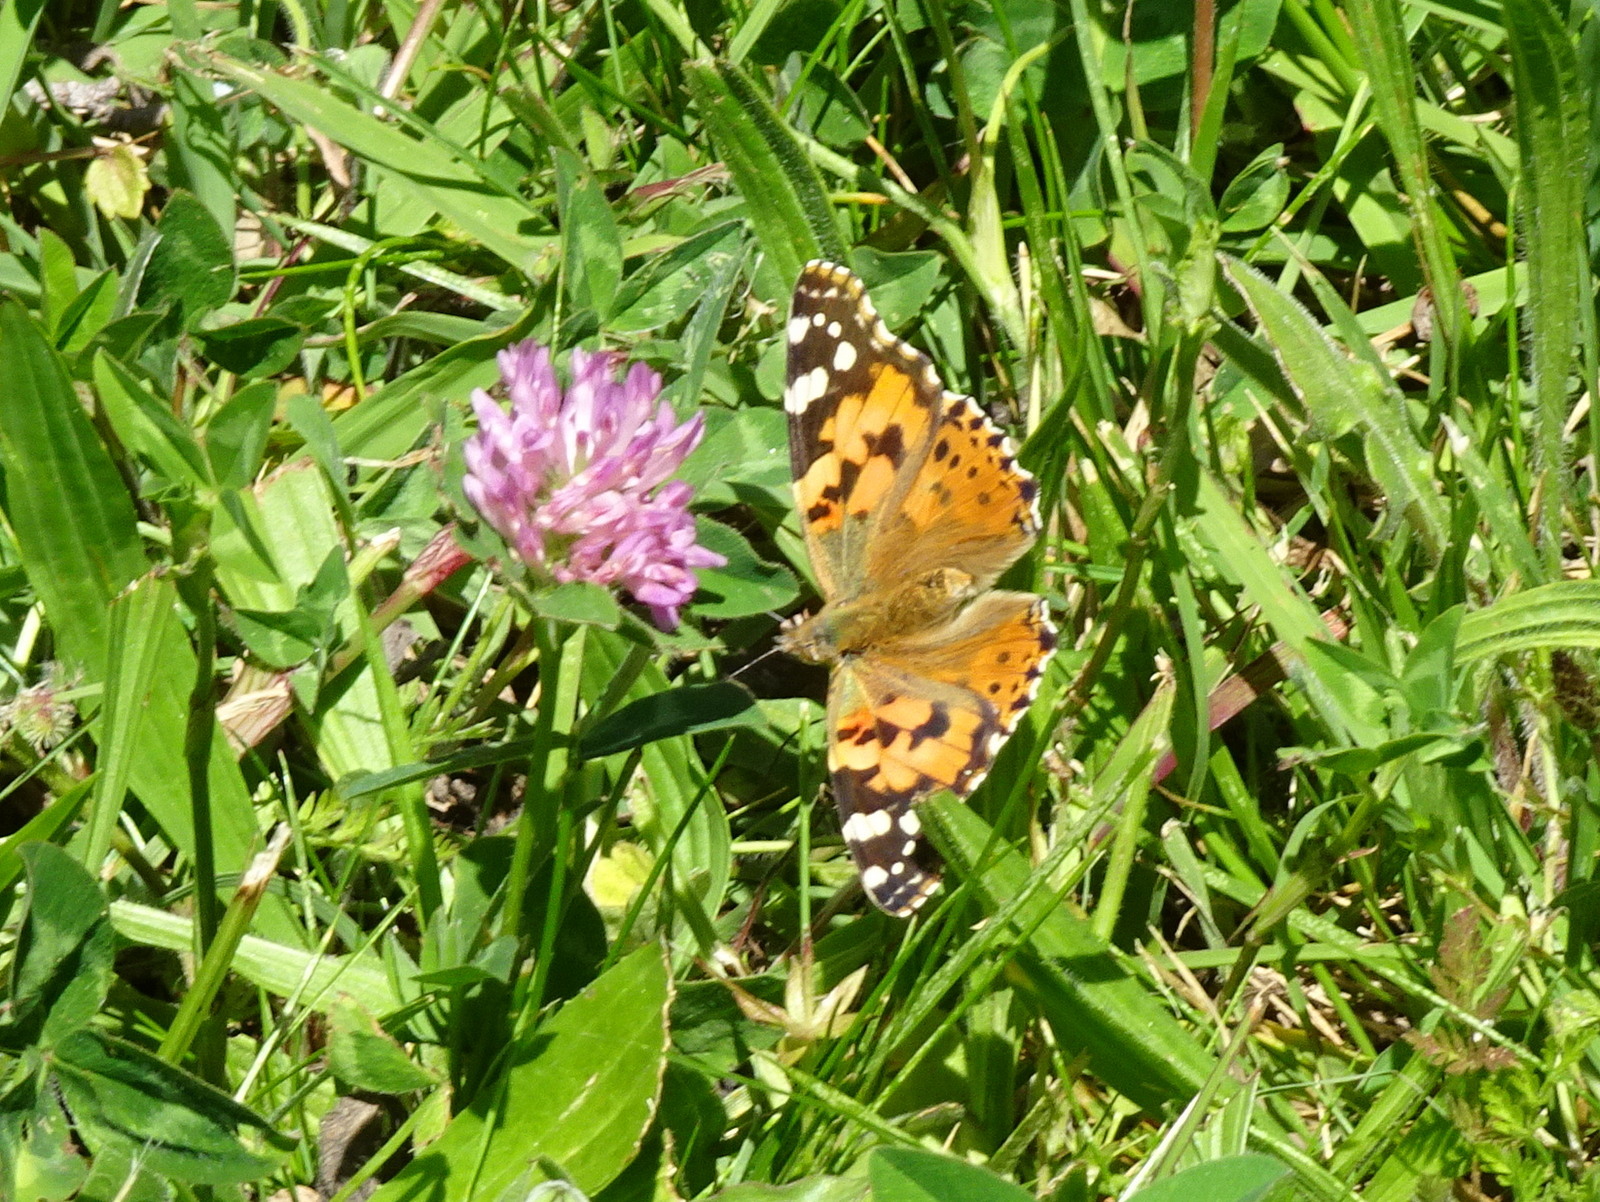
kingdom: Animalia
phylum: Arthropoda
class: Insecta
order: Lepidoptera
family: Nymphalidae
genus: Vanessa
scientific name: Vanessa cardui
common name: Painted lady
